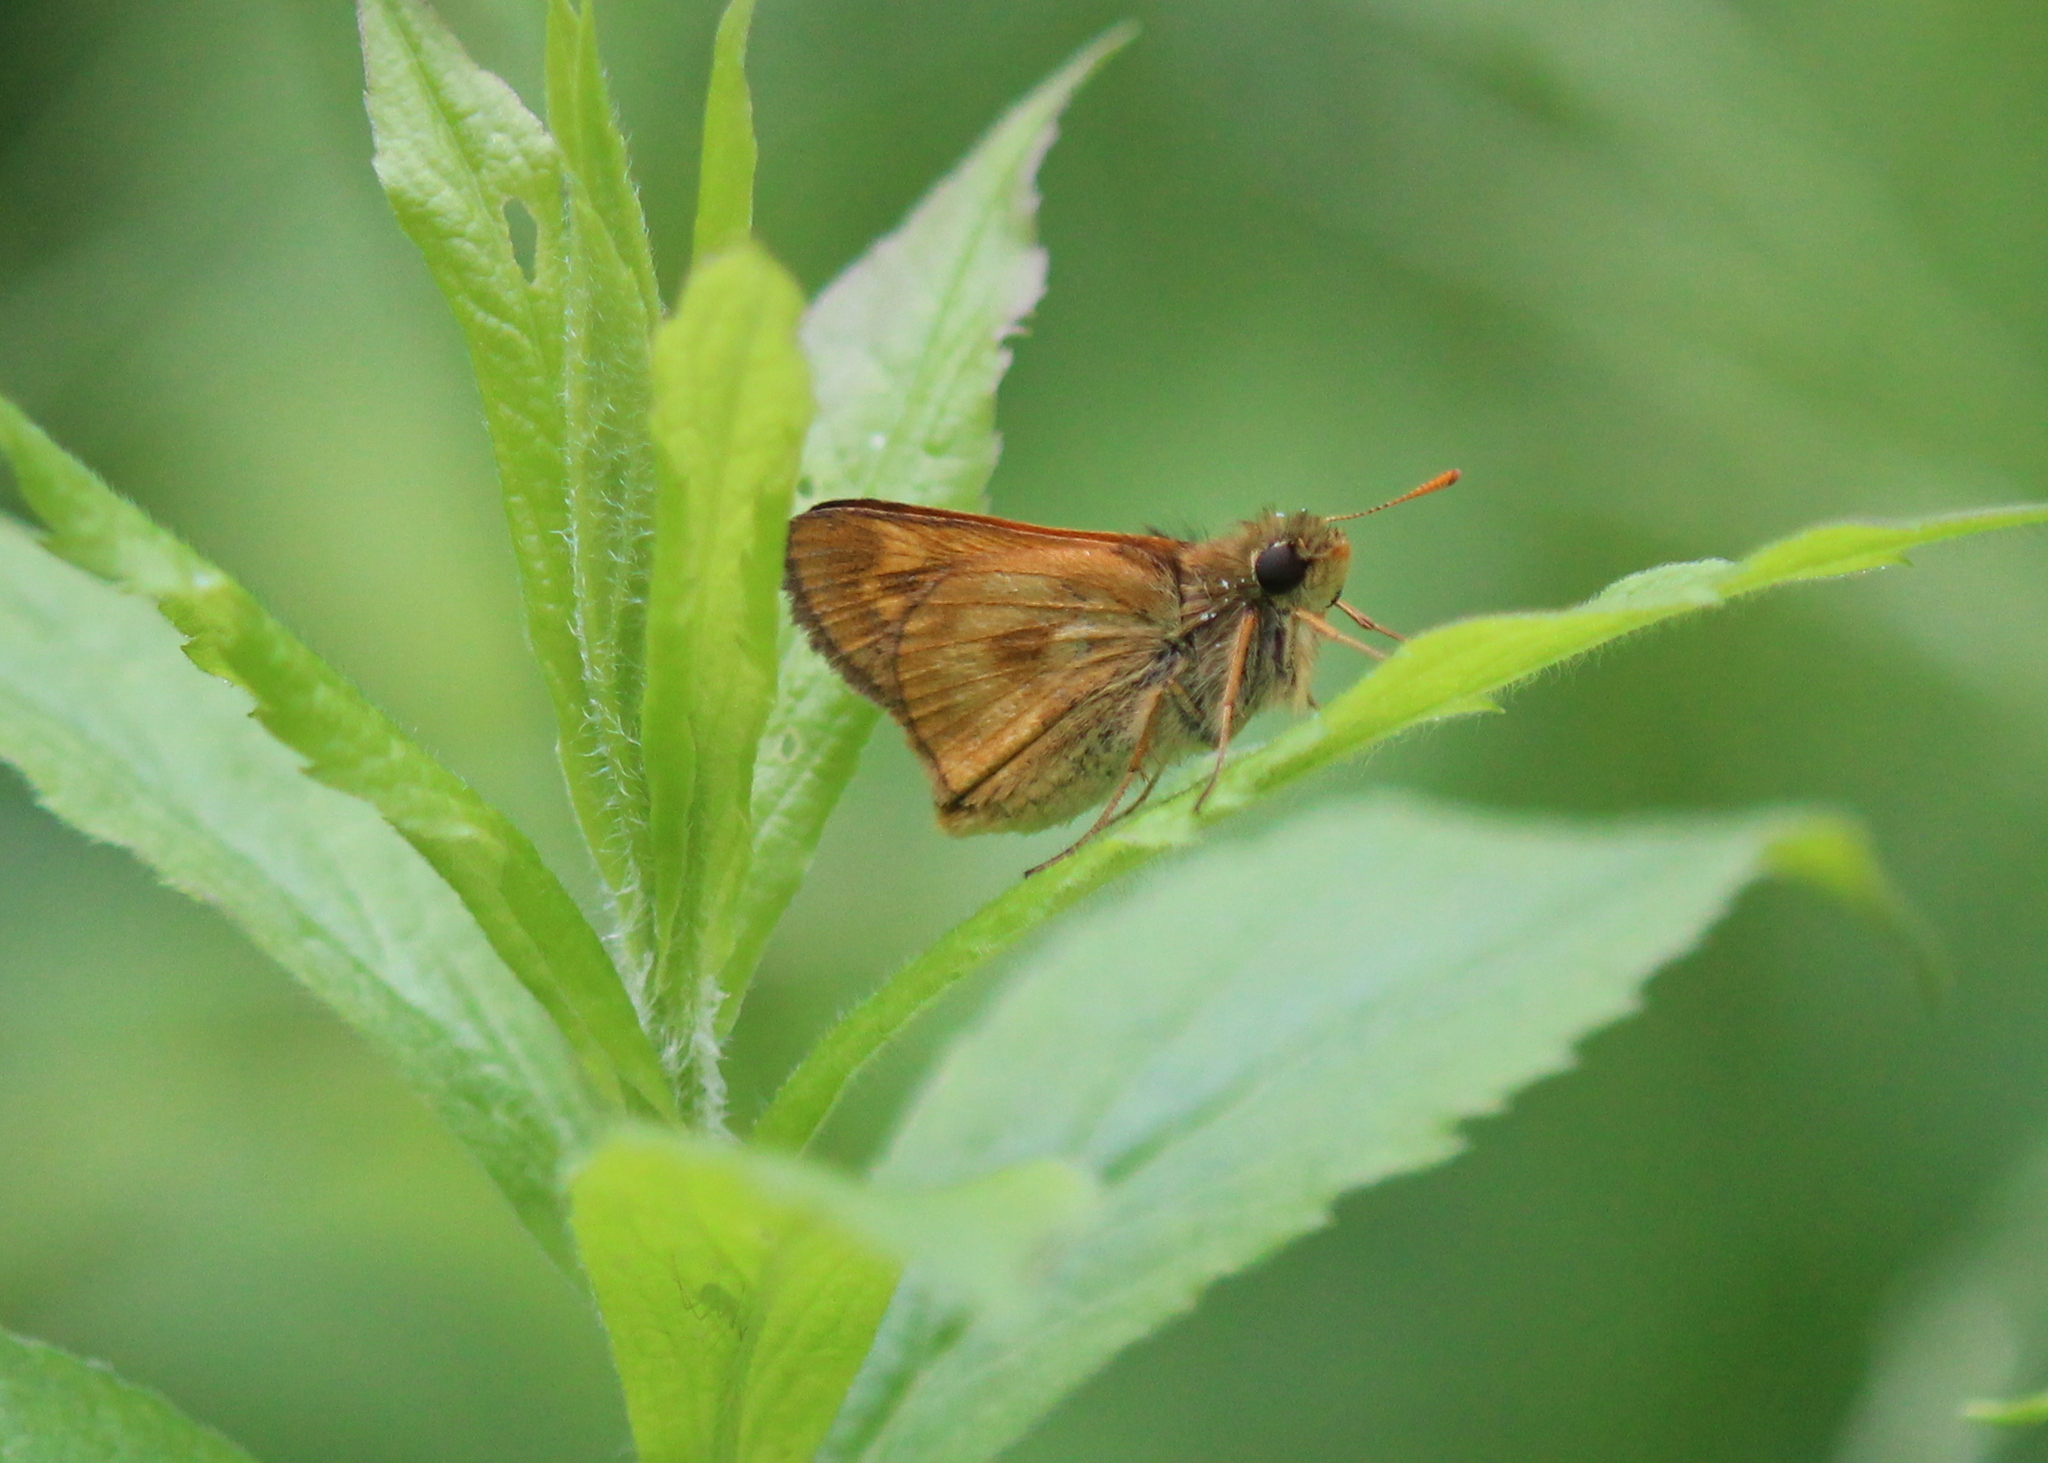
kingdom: Animalia
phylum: Arthropoda
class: Insecta
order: Lepidoptera
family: Hesperiidae
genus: Polites
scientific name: Polites mystic
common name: Long dash
